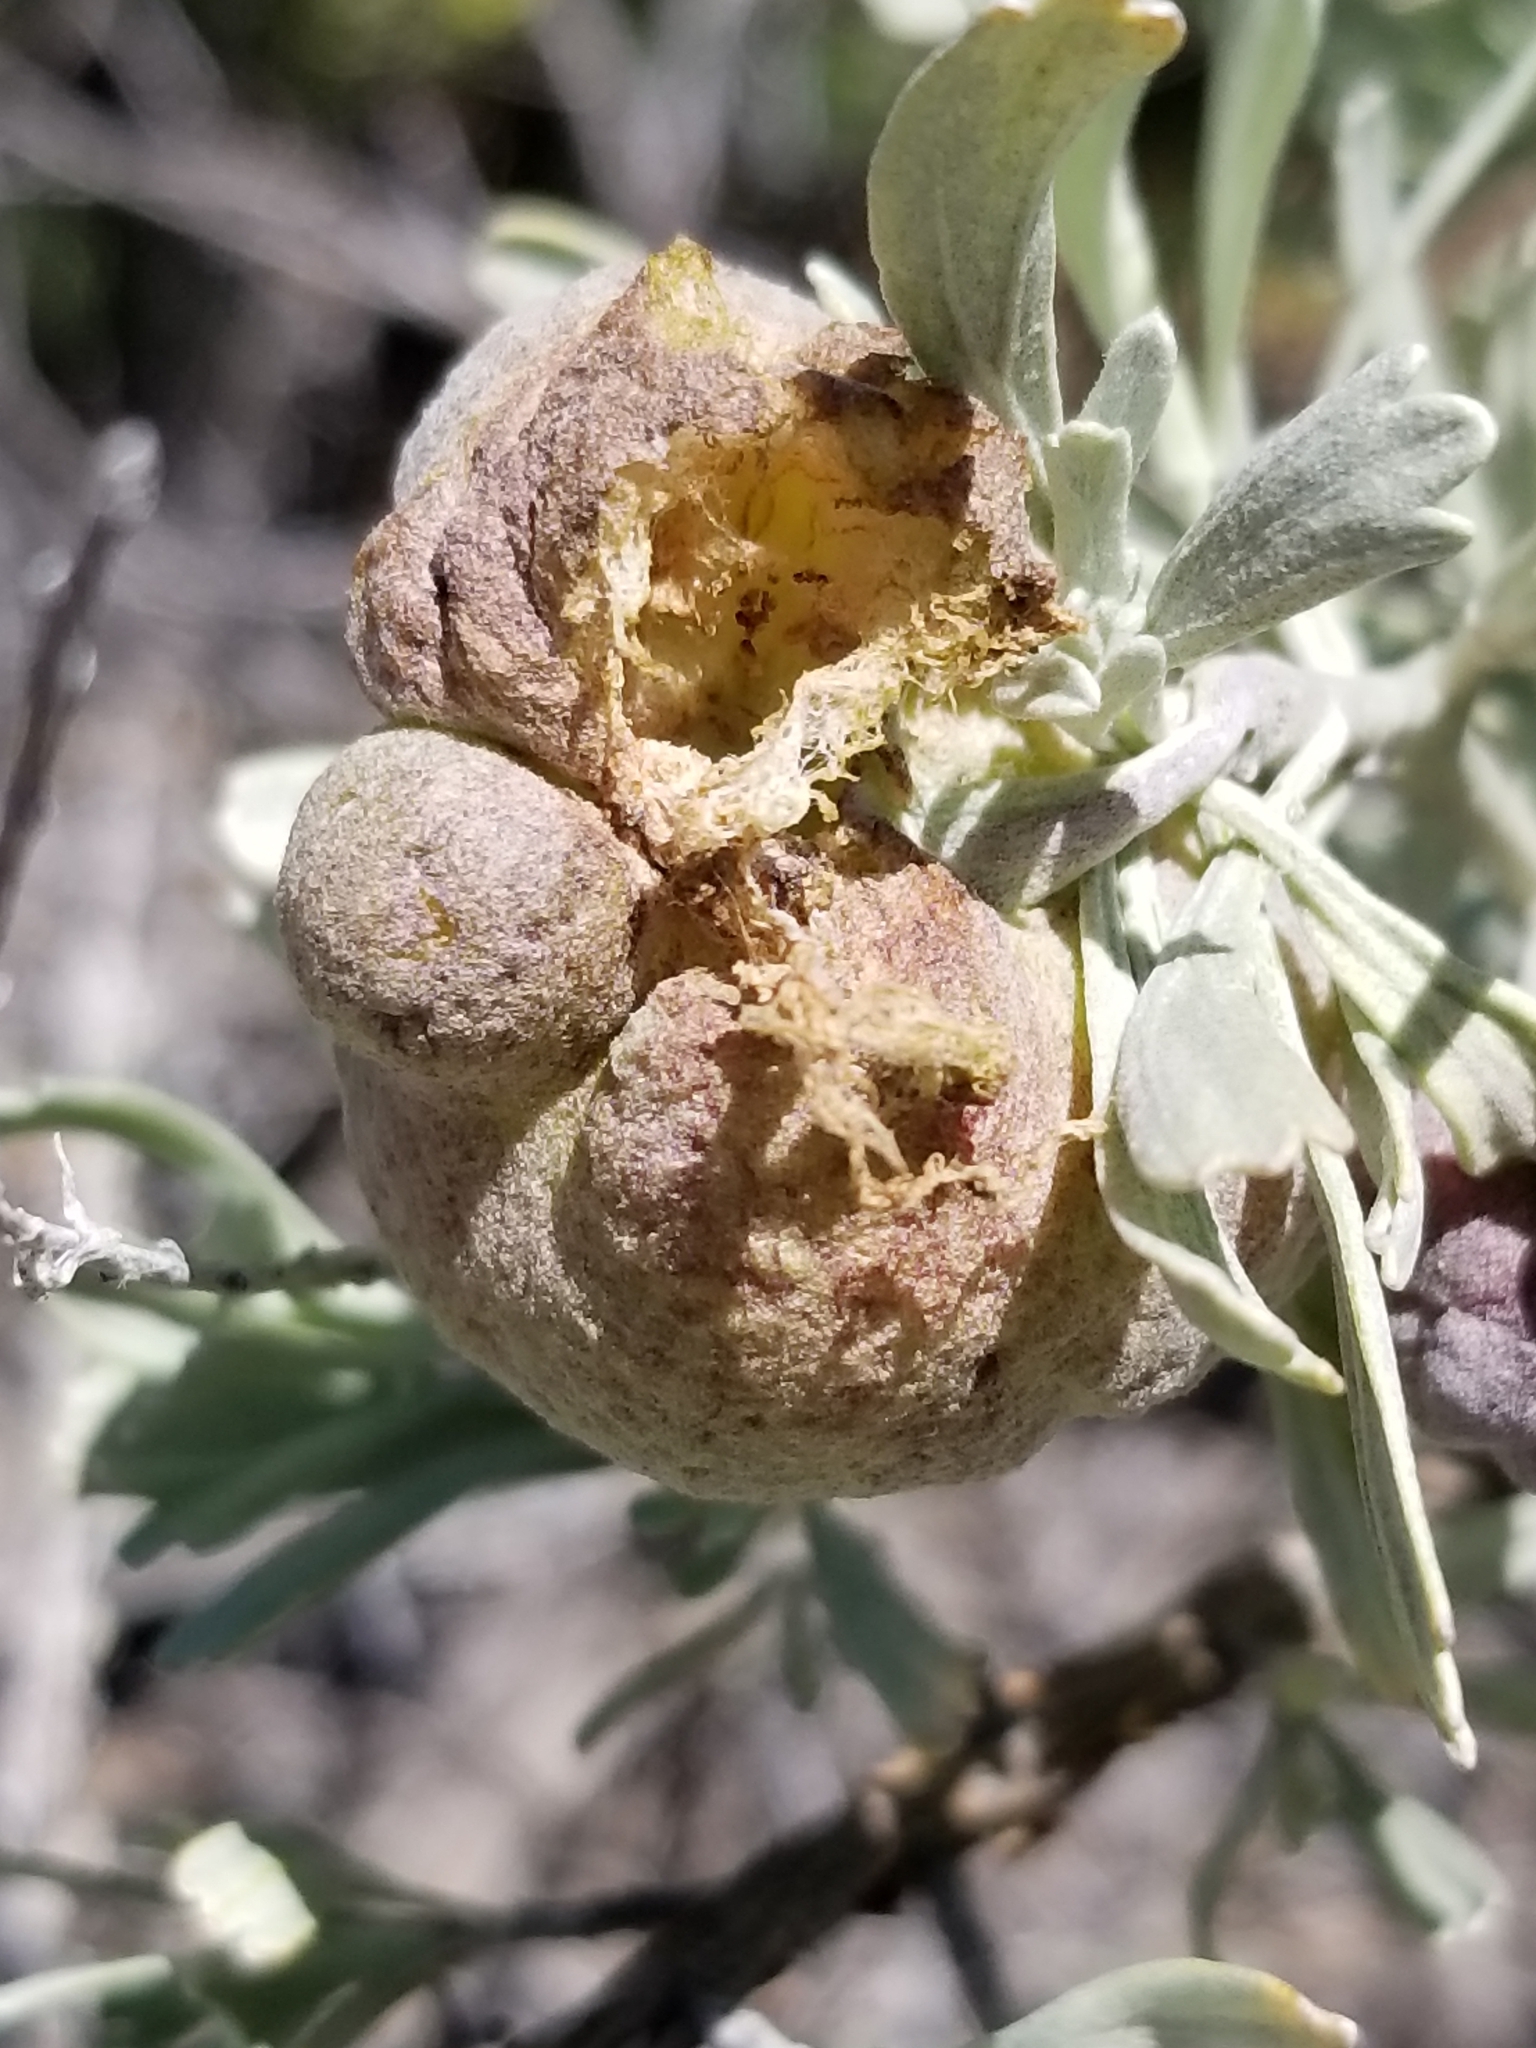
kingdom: Animalia
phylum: Arthropoda
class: Insecta
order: Diptera
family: Cecidomyiidae
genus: Rhopalomyia
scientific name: Rhopalomyia pomum
